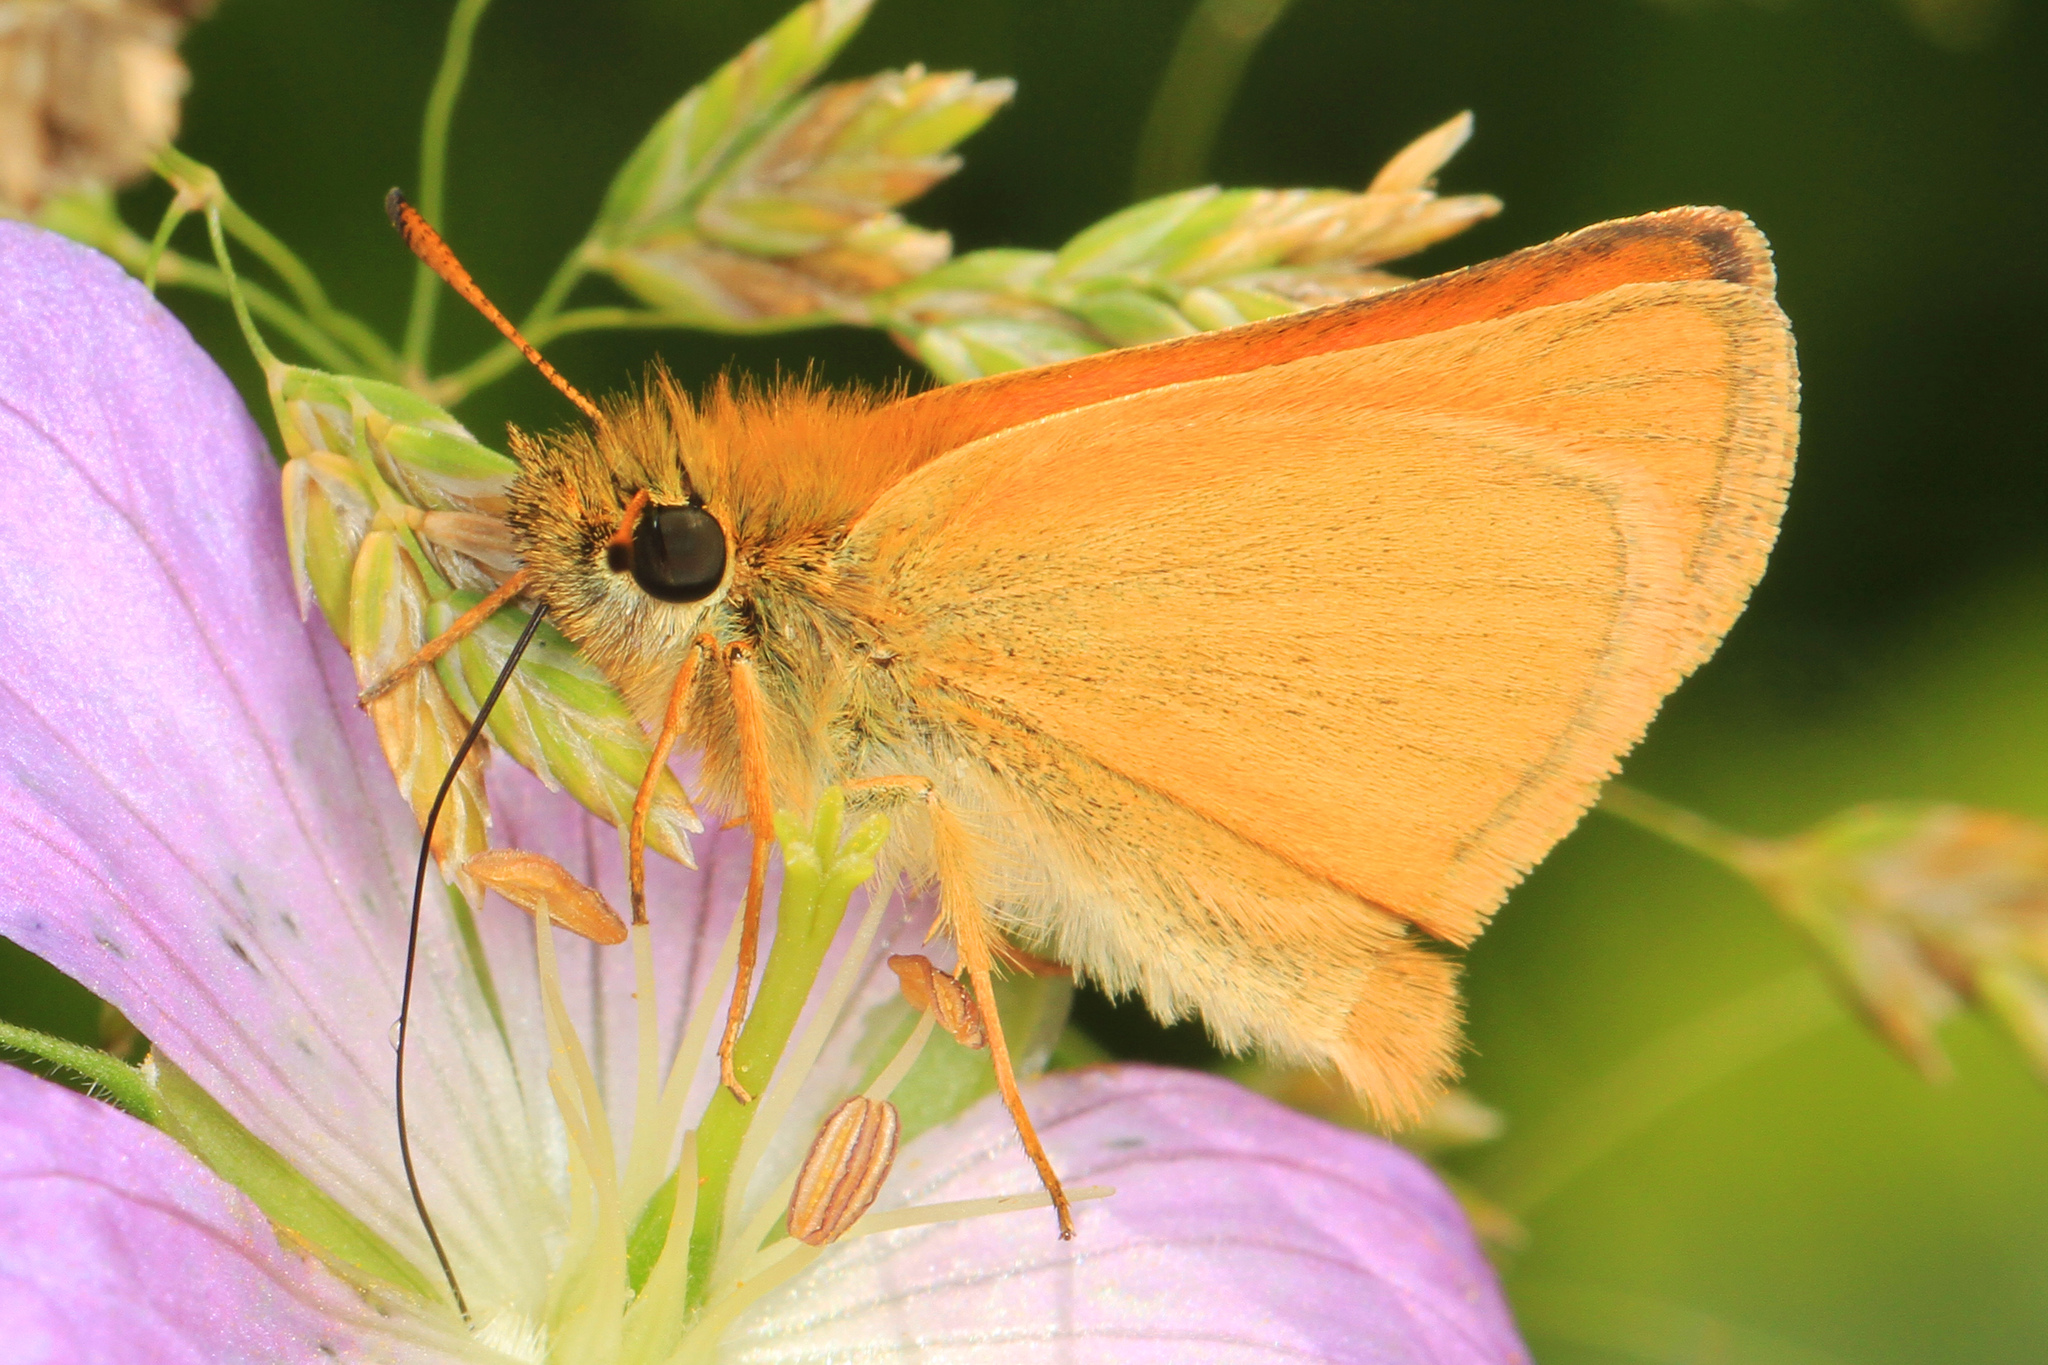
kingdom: Animalia
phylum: Arthropoda
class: Insecta
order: Lepidoptera
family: Hesperiidae
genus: Thymelicus
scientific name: Thymelicus lineola
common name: Essex skipper
